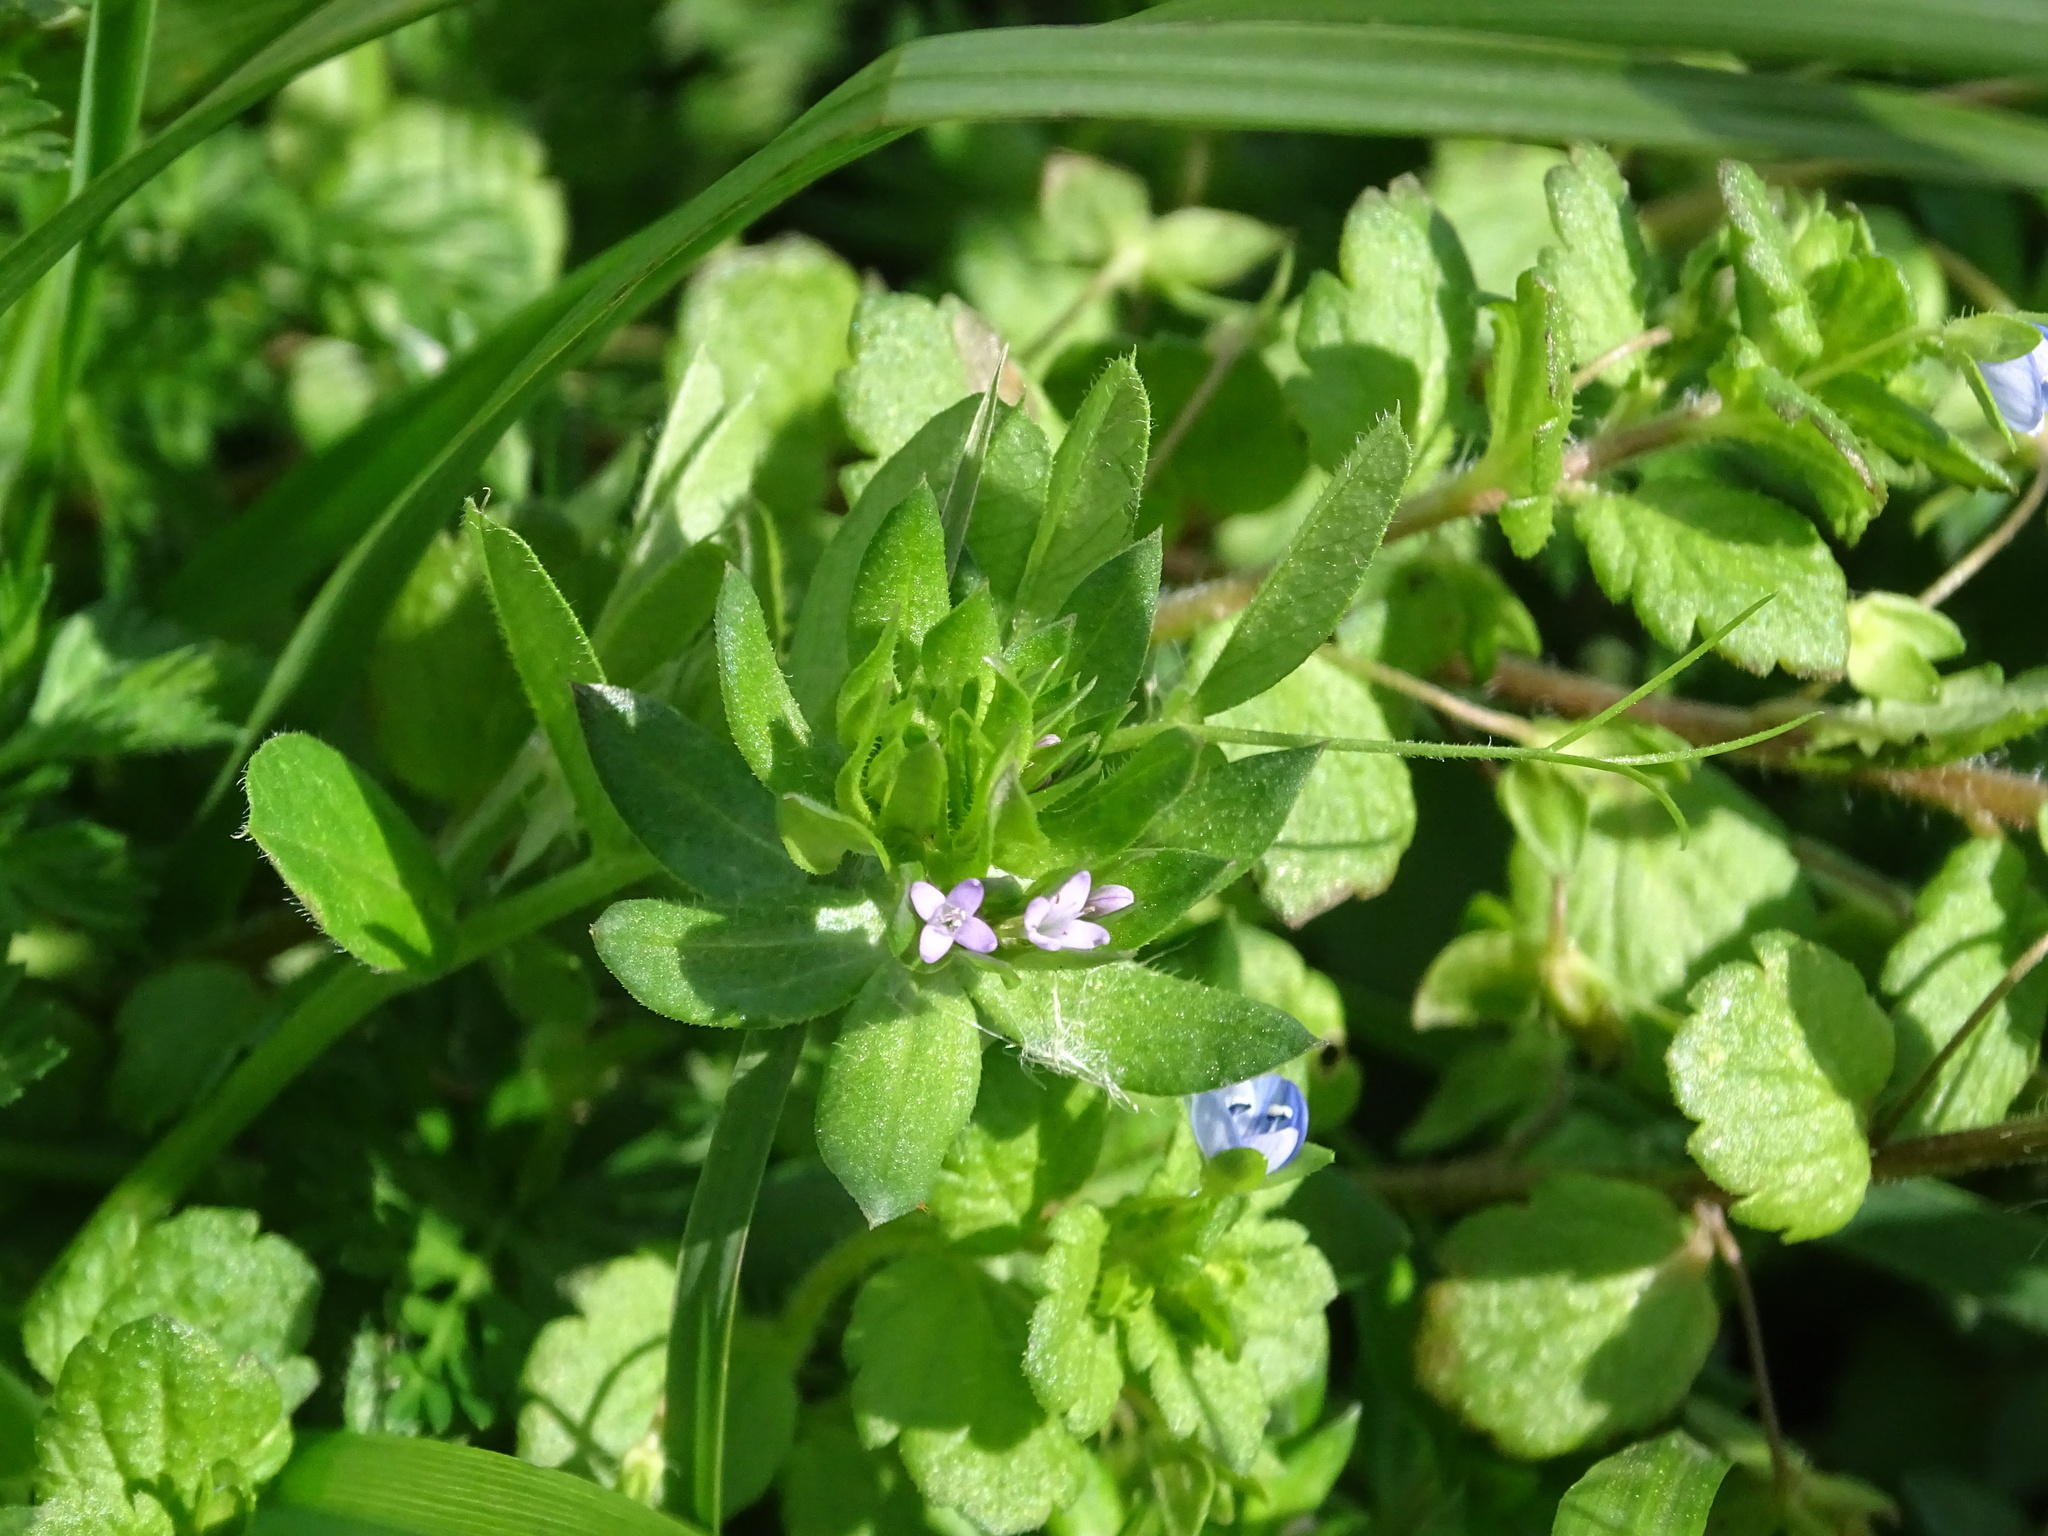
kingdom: Plantae
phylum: Tracheophyta
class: Magnoliopsida
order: Gentianales
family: Rubiaceae
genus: Sherardia
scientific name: Sherardia arvensis
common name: Field madder
